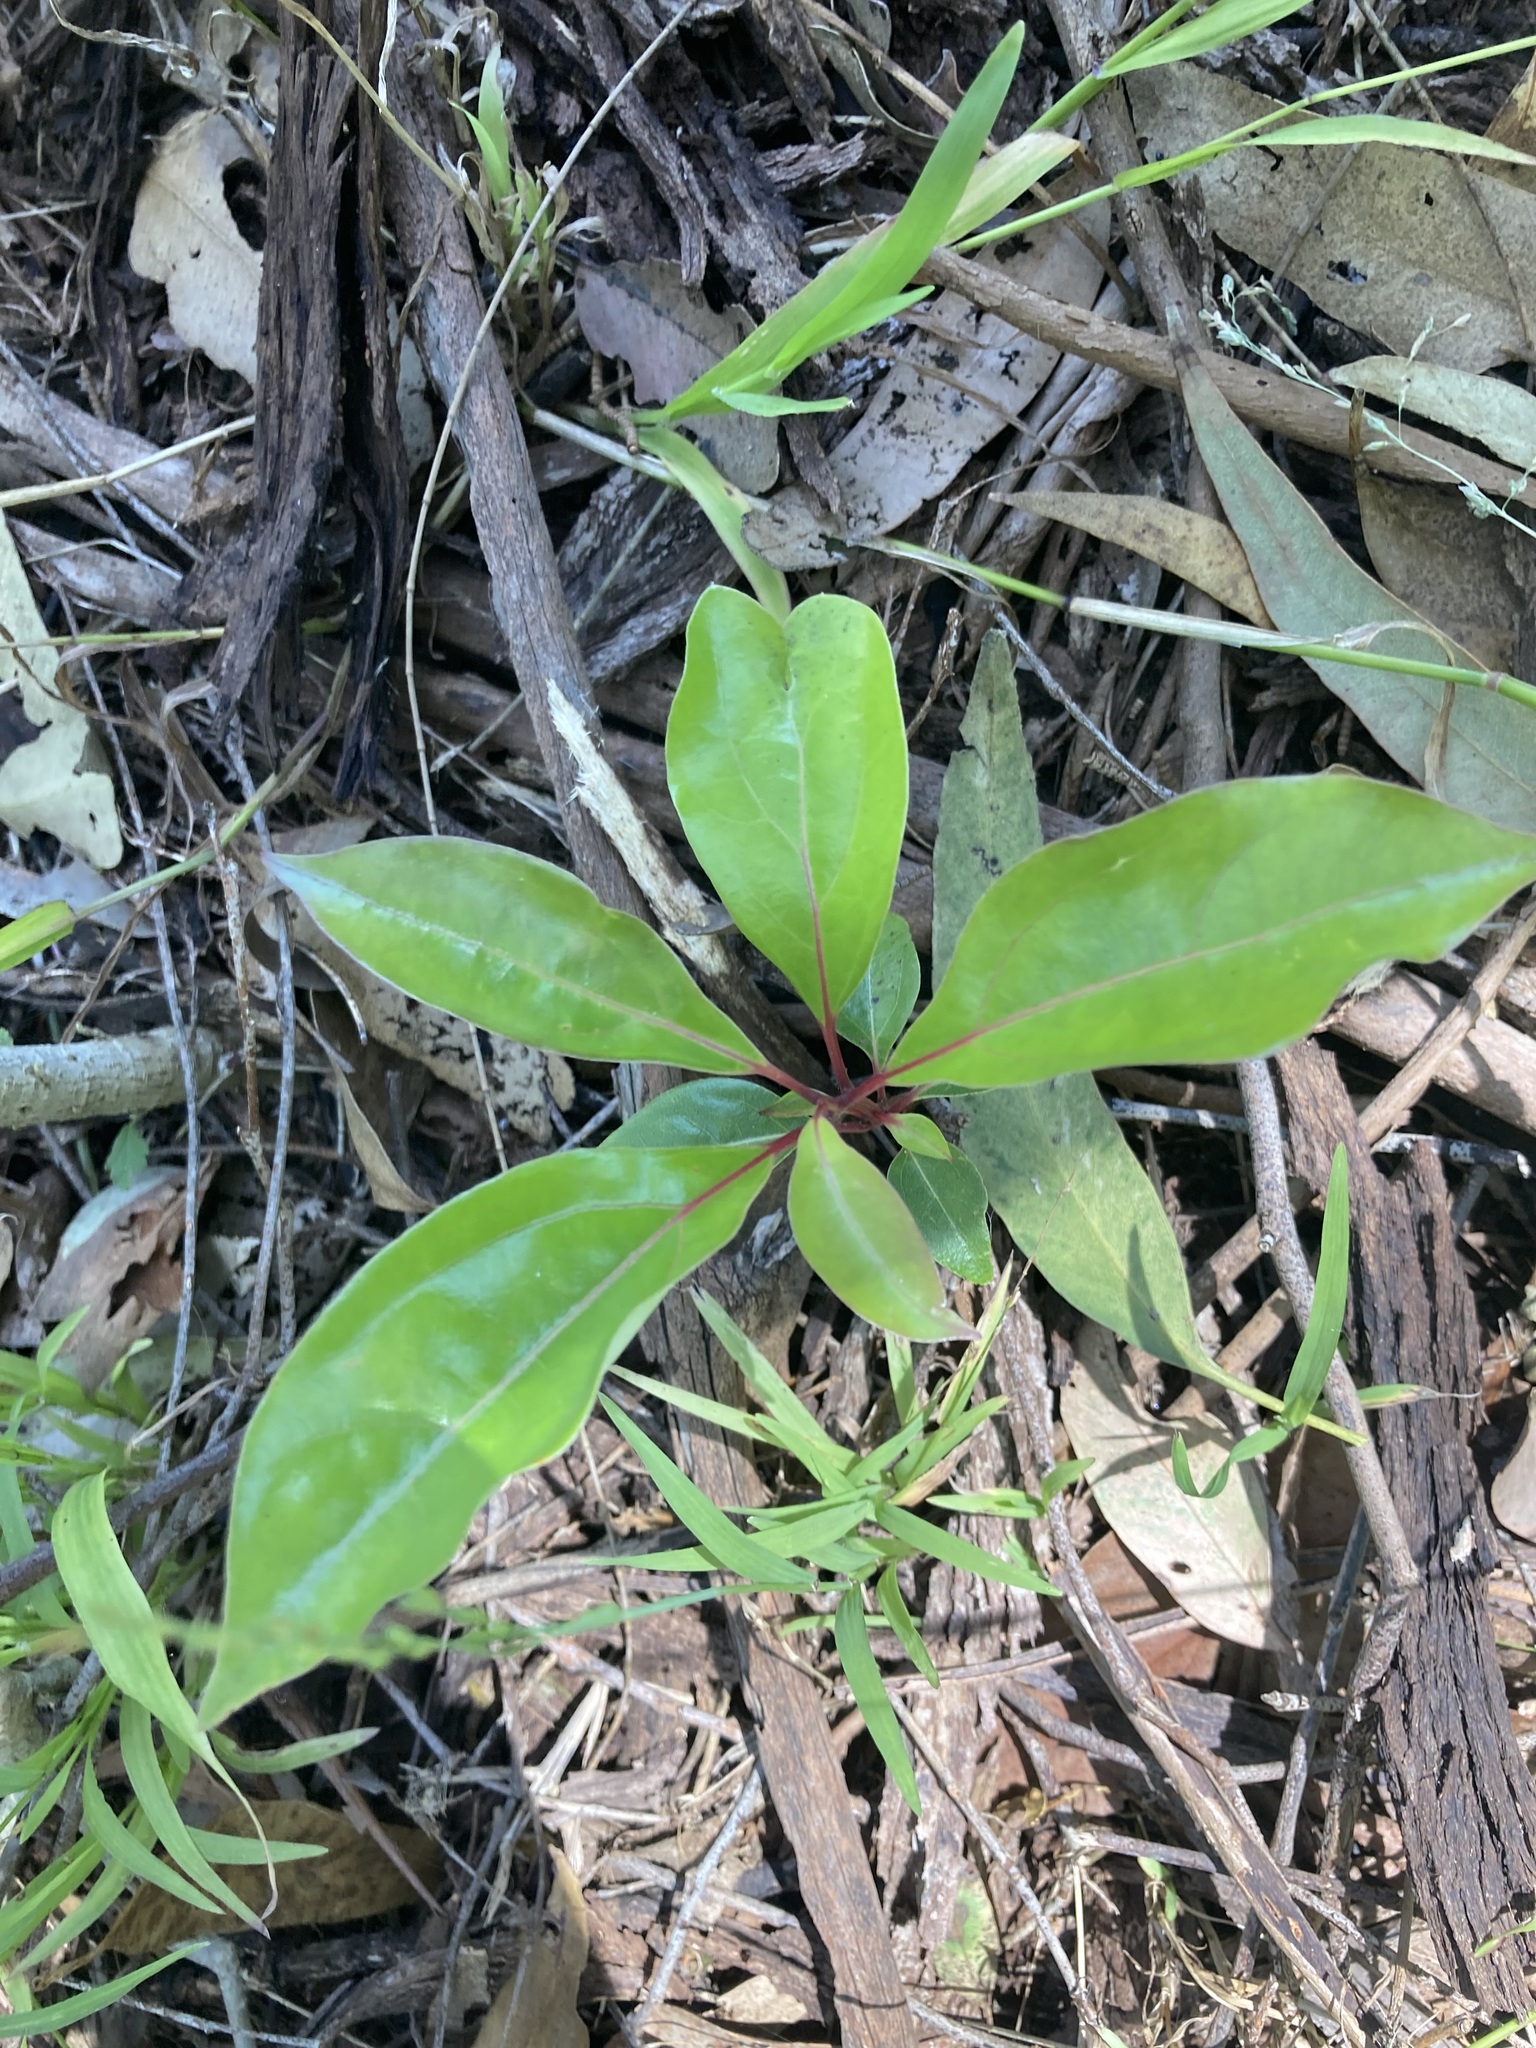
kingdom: Plantae
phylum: Tracheophyta
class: Magnoliopsida
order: Laurales
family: Lauraceae
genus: Cinnamomum
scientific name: Cinnamomum camphora
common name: Camphortree
